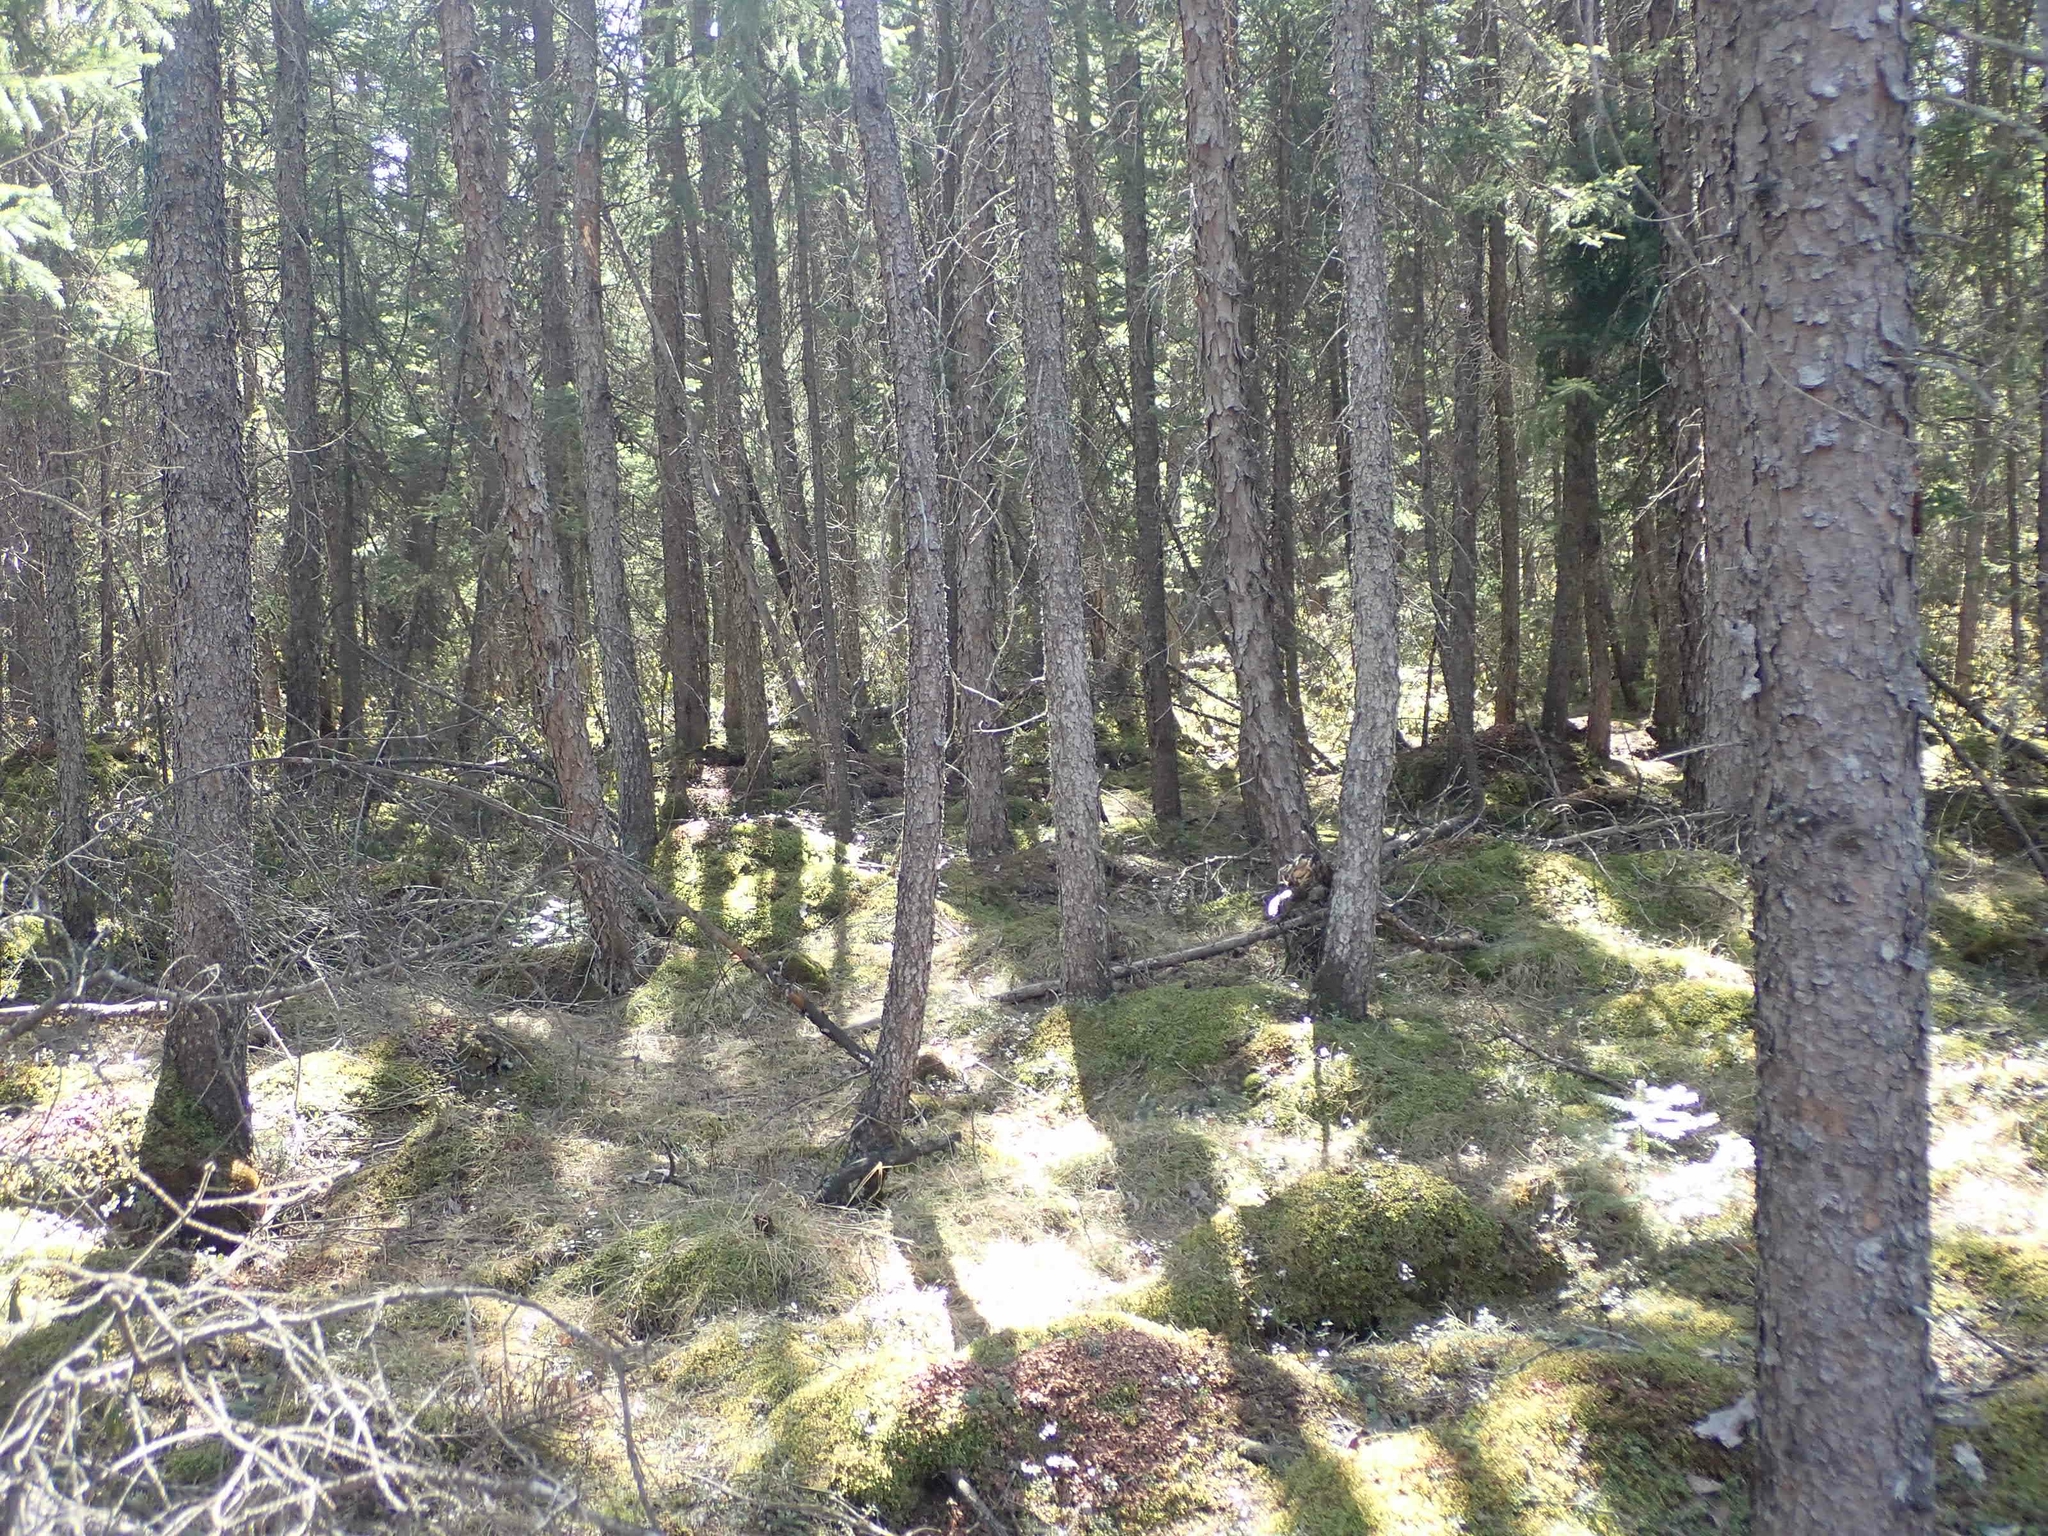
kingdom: Plantae
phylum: Tracheophyta
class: Pinopsida
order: Pinales
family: Pinaceae
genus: Picea
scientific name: Picea mariana
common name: Black spruce
